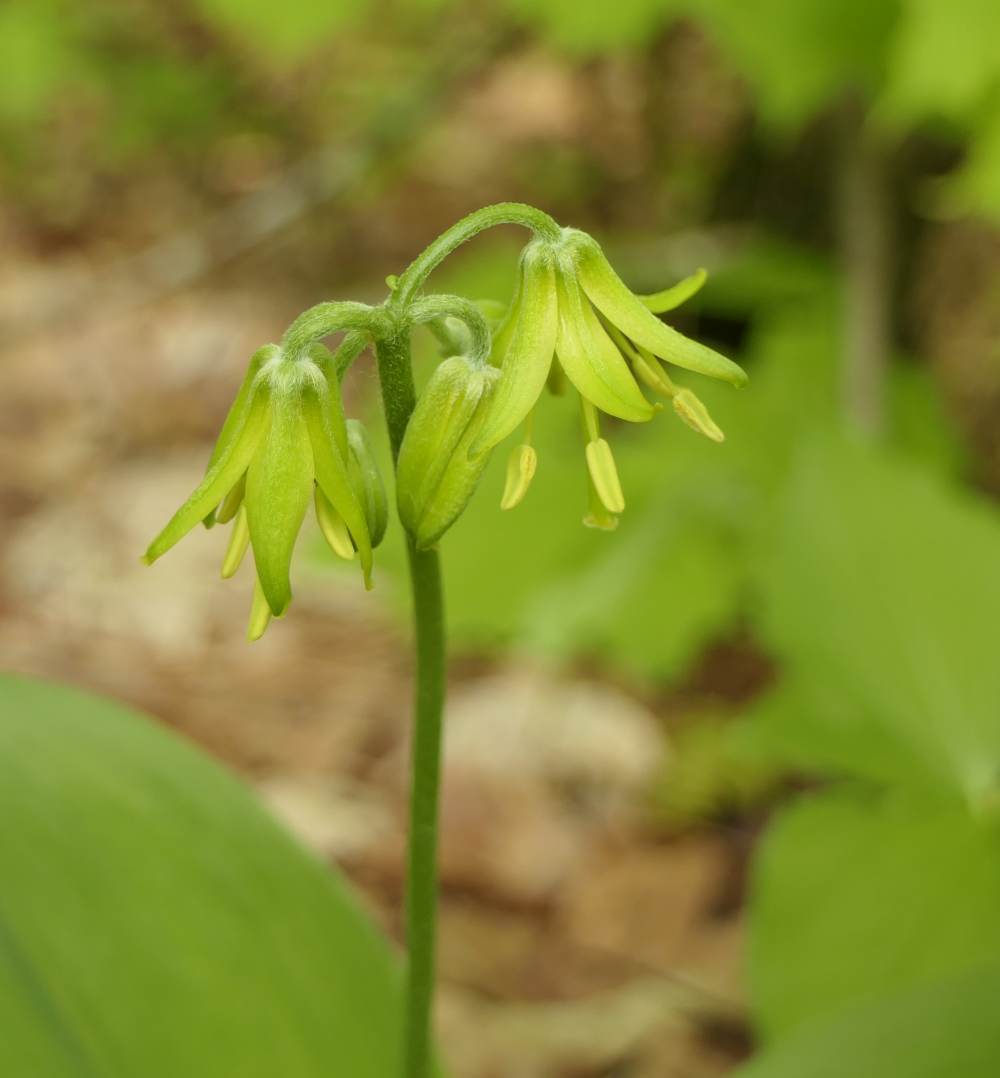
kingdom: Plantae
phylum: Tracheophyta
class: Liliopsida
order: Liliales
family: Liliaceae
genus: Clintonia
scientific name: Clintonia borealis
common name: Yellow clintonia
